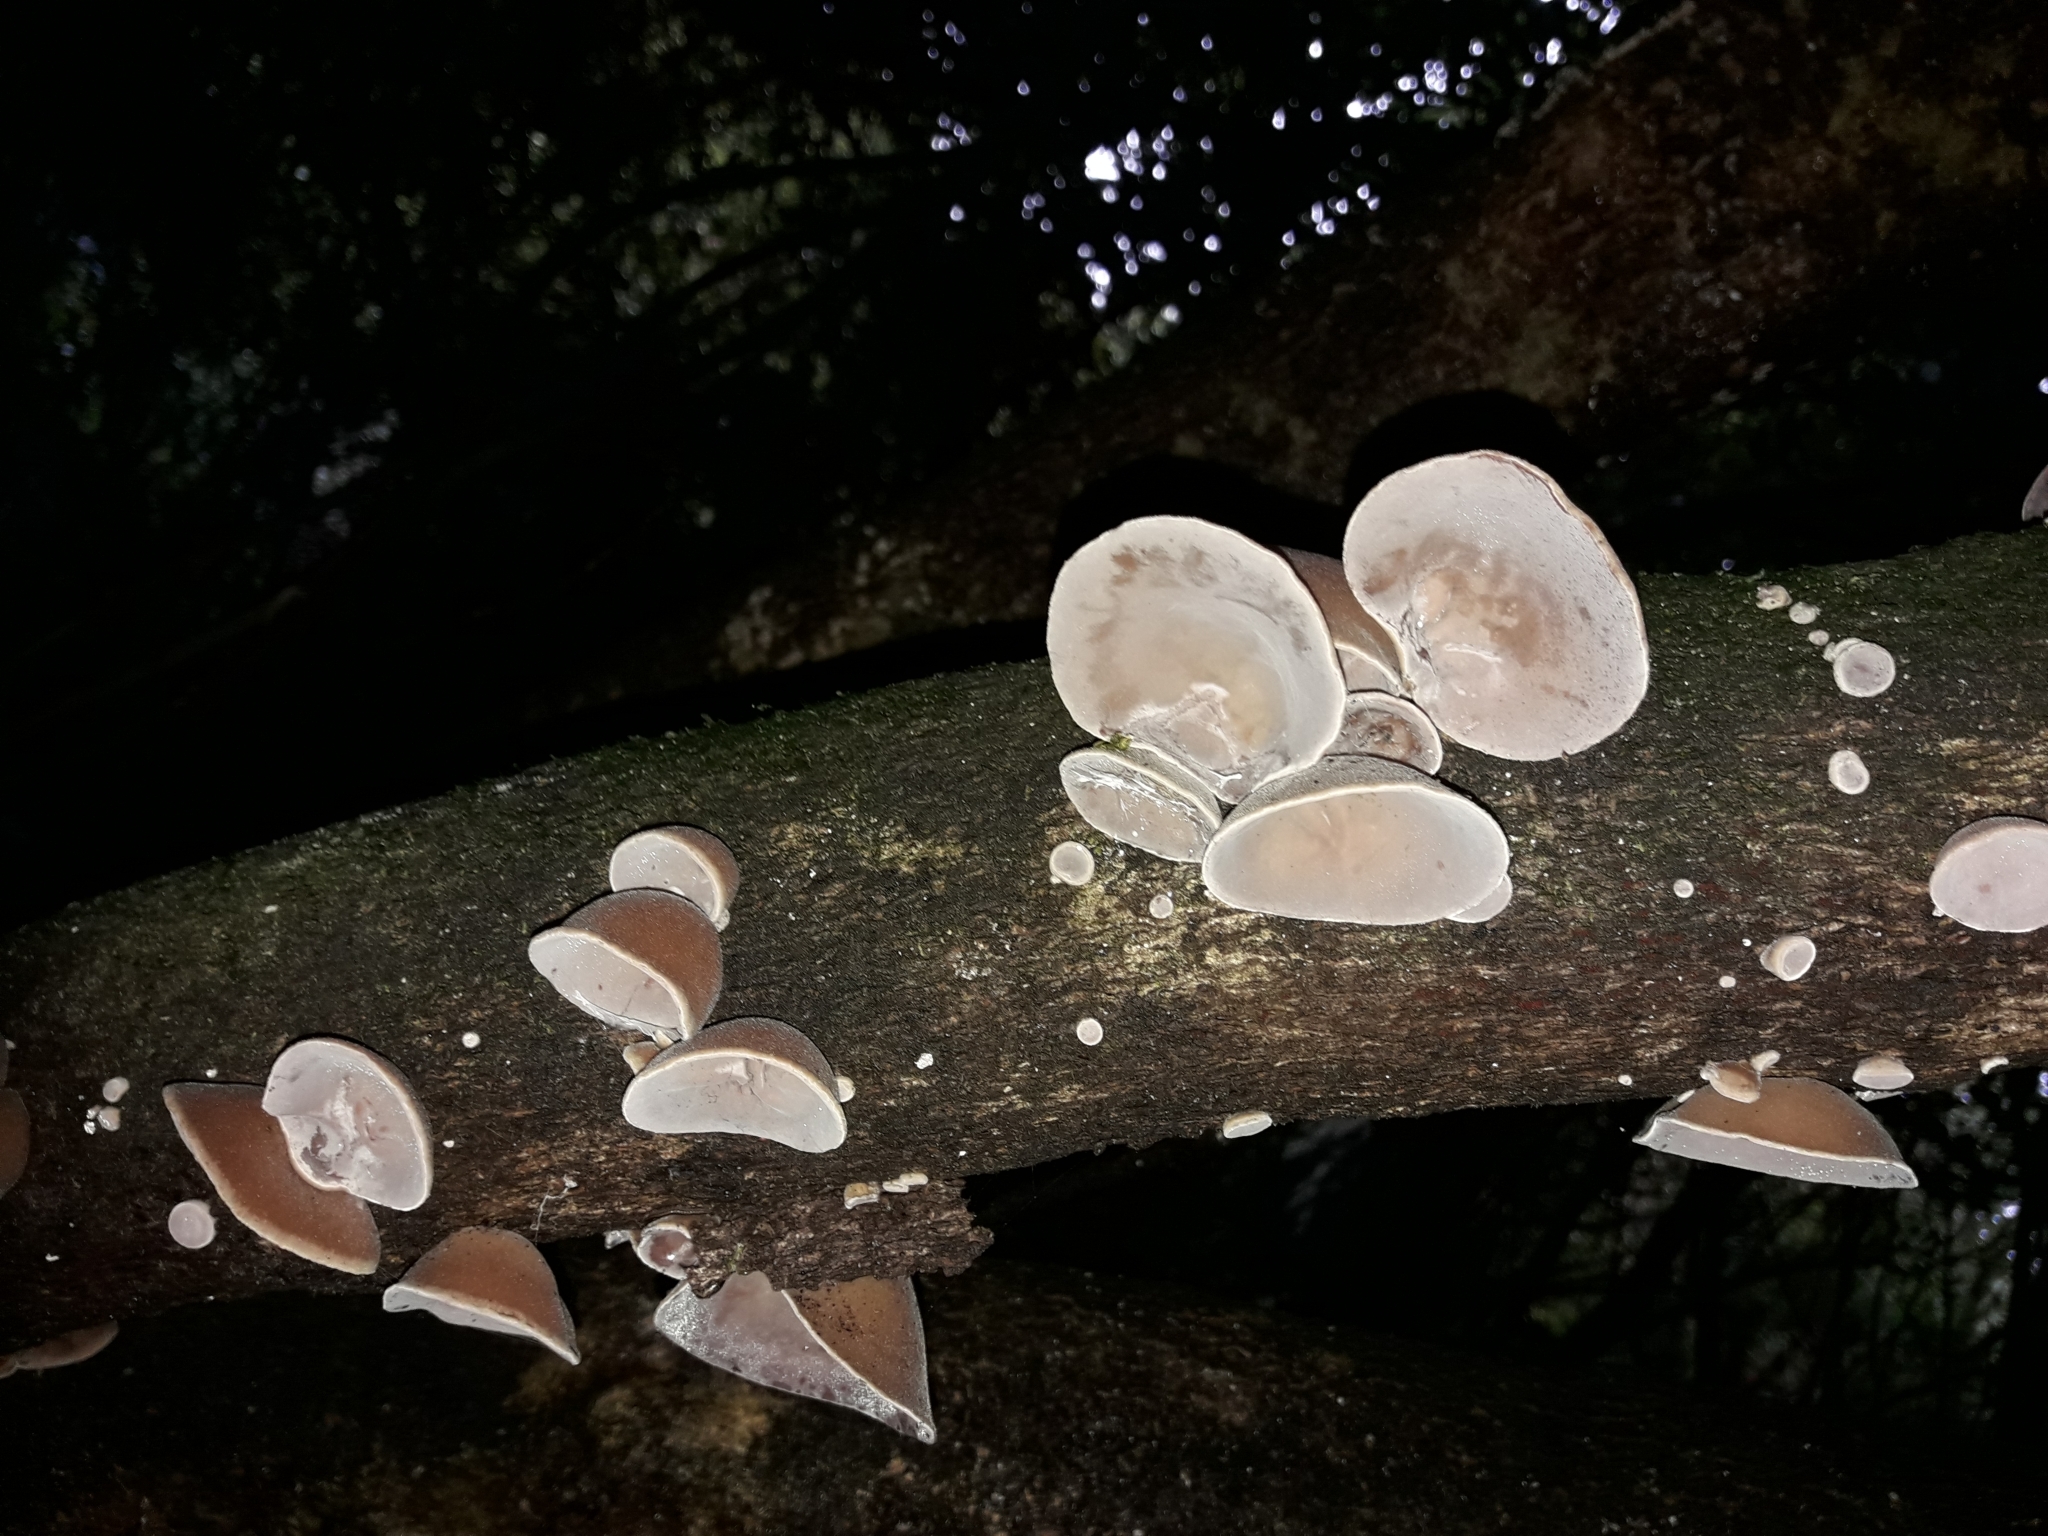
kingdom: Fungi
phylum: Basidiomycota
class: Agaricomycetes
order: Auriculariales
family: Auriculariaceae
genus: Auricularia
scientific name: Auricularia cornea
